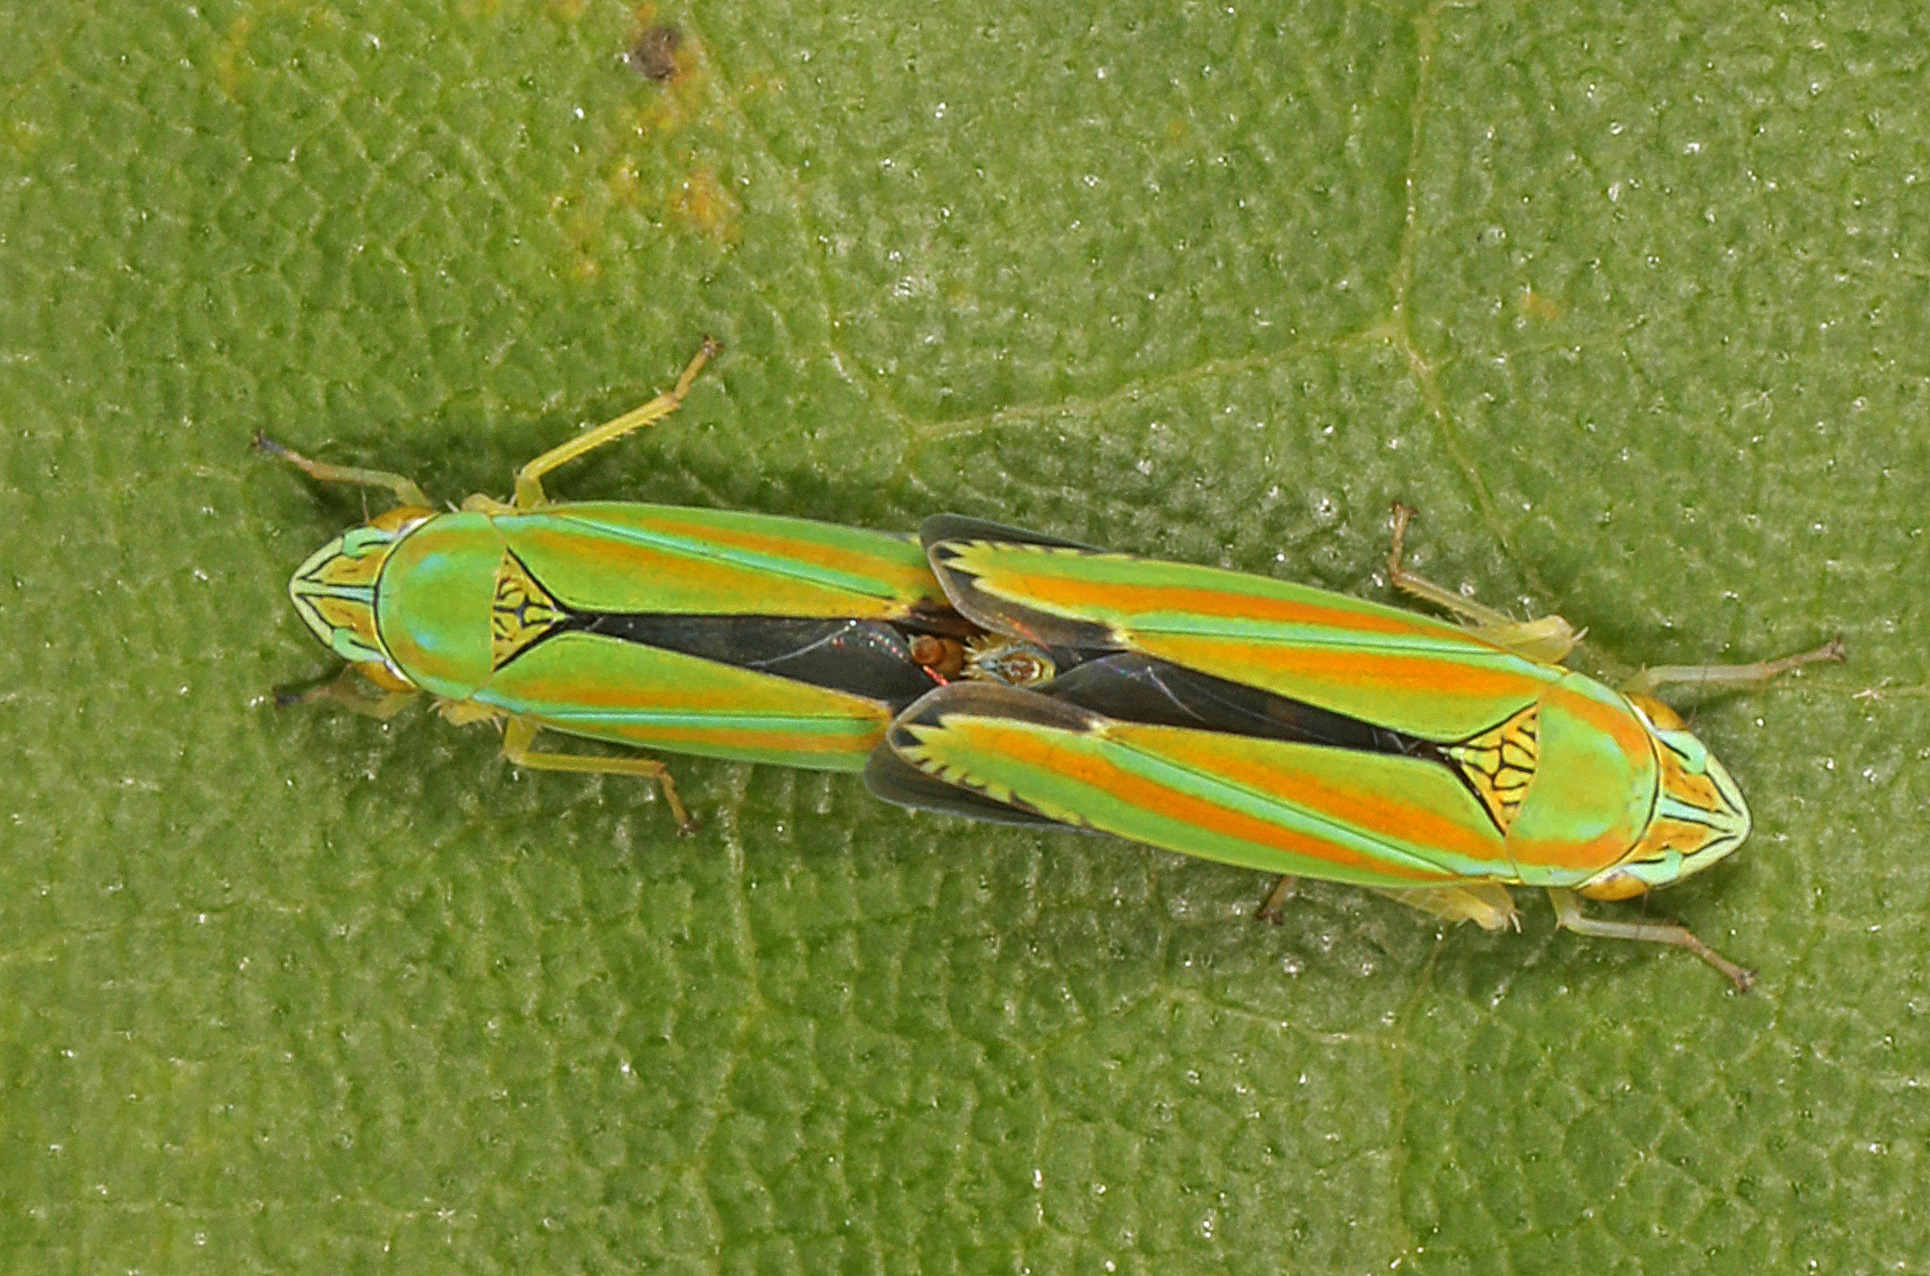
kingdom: Animalia
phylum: Arthropoda
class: Insecta
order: Hemiptera
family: Cicadellidae
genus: Graphocephala
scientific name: Graphocephala versuta
